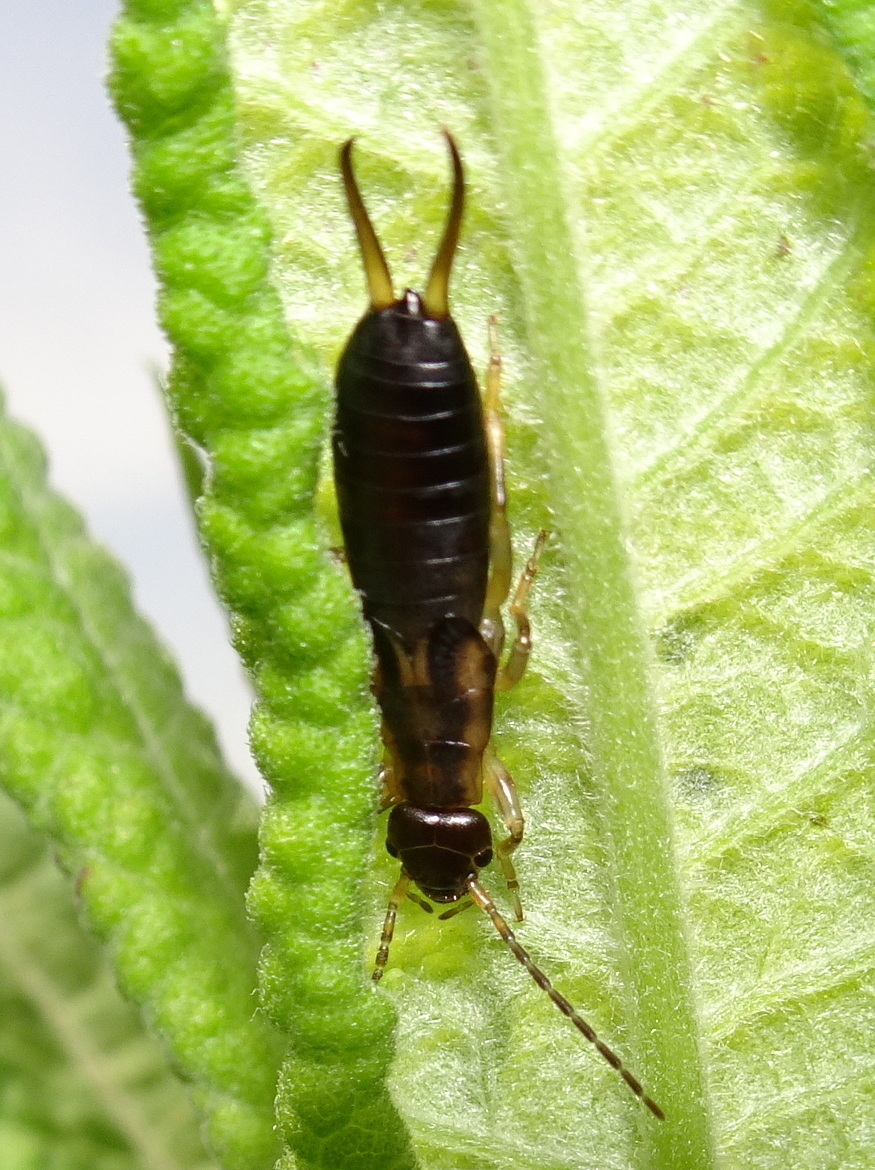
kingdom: Animalia
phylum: Arthropoda
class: Insecta
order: Dermaptera
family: Forficulidae
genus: Forficula
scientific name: Forficula
